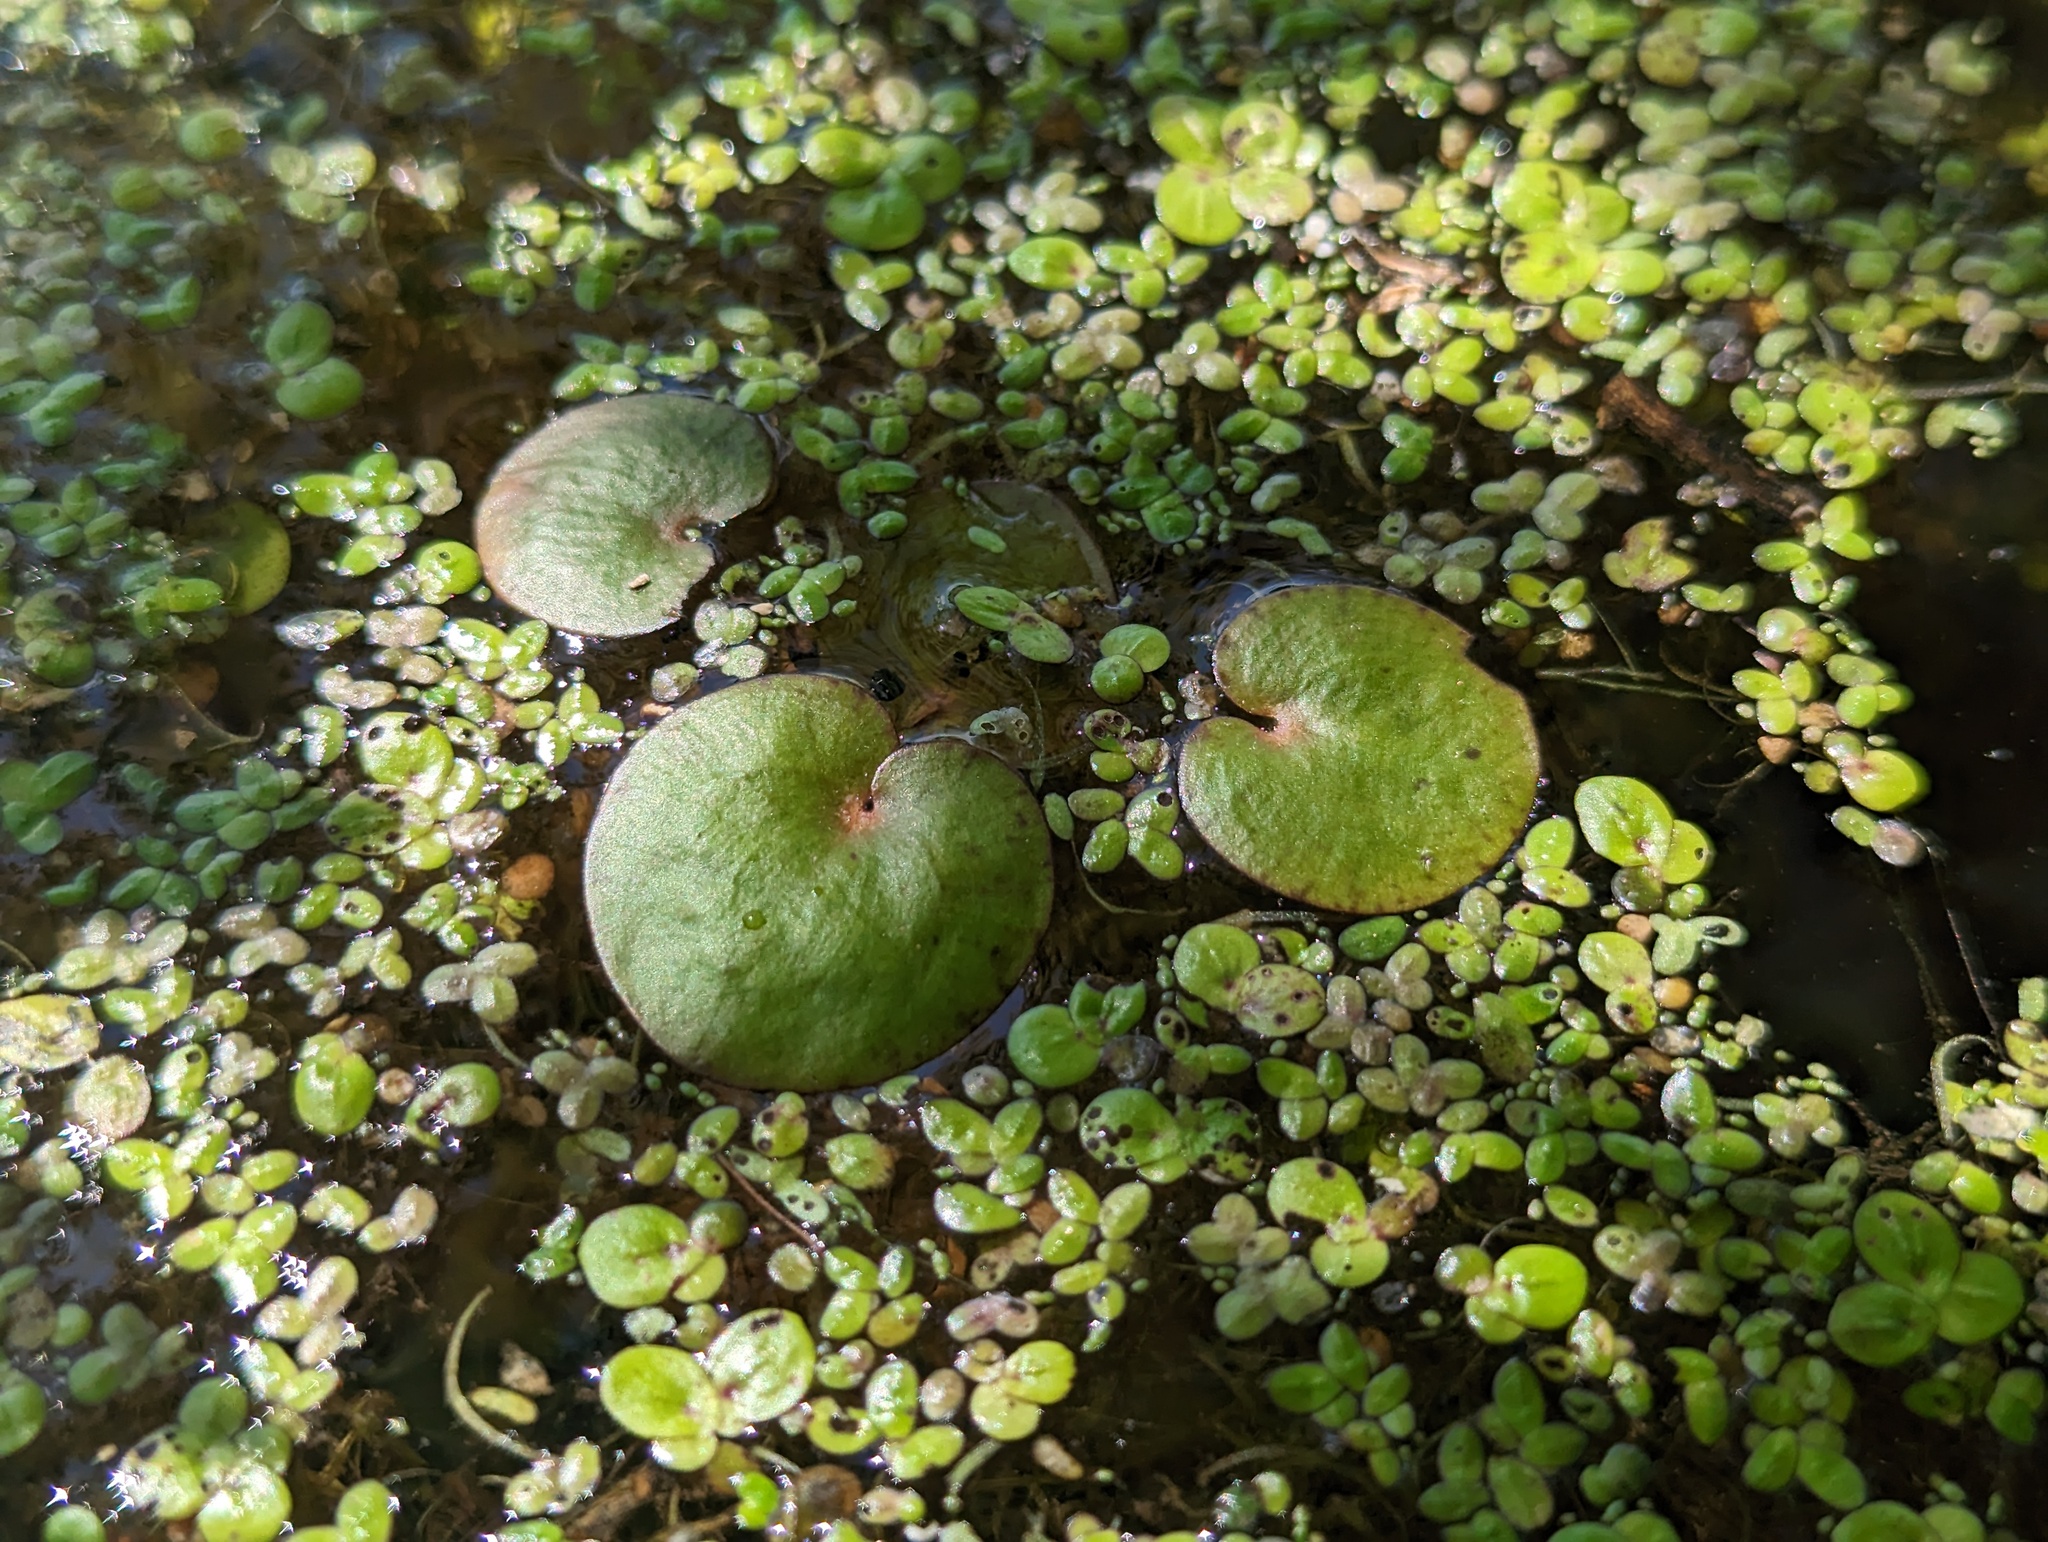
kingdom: Plantae
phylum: Tracheophyta
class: Liliopsida
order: Alismatales
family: Hydrocharitaceae
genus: Hydrocharis
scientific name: Hydrocharis spongia
